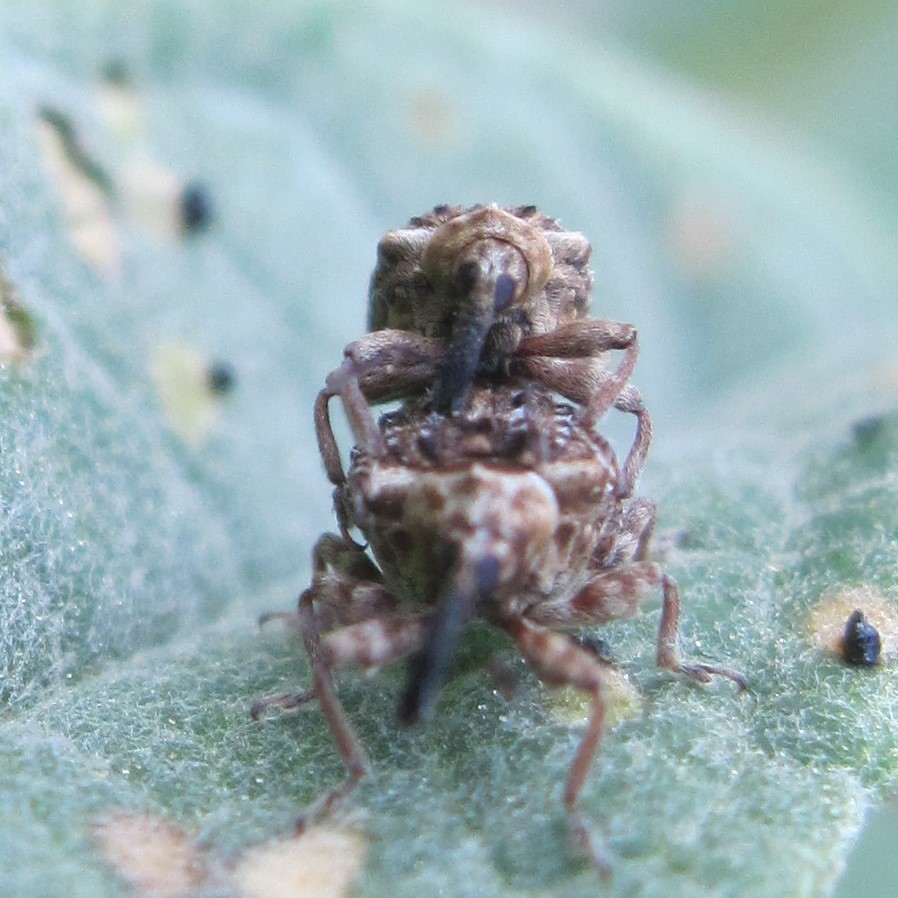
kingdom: Animalia
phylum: Arthropoda
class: Insecta
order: Coleoptera
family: Curculionidae
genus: Cleopus
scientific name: Cleopus japonicus
